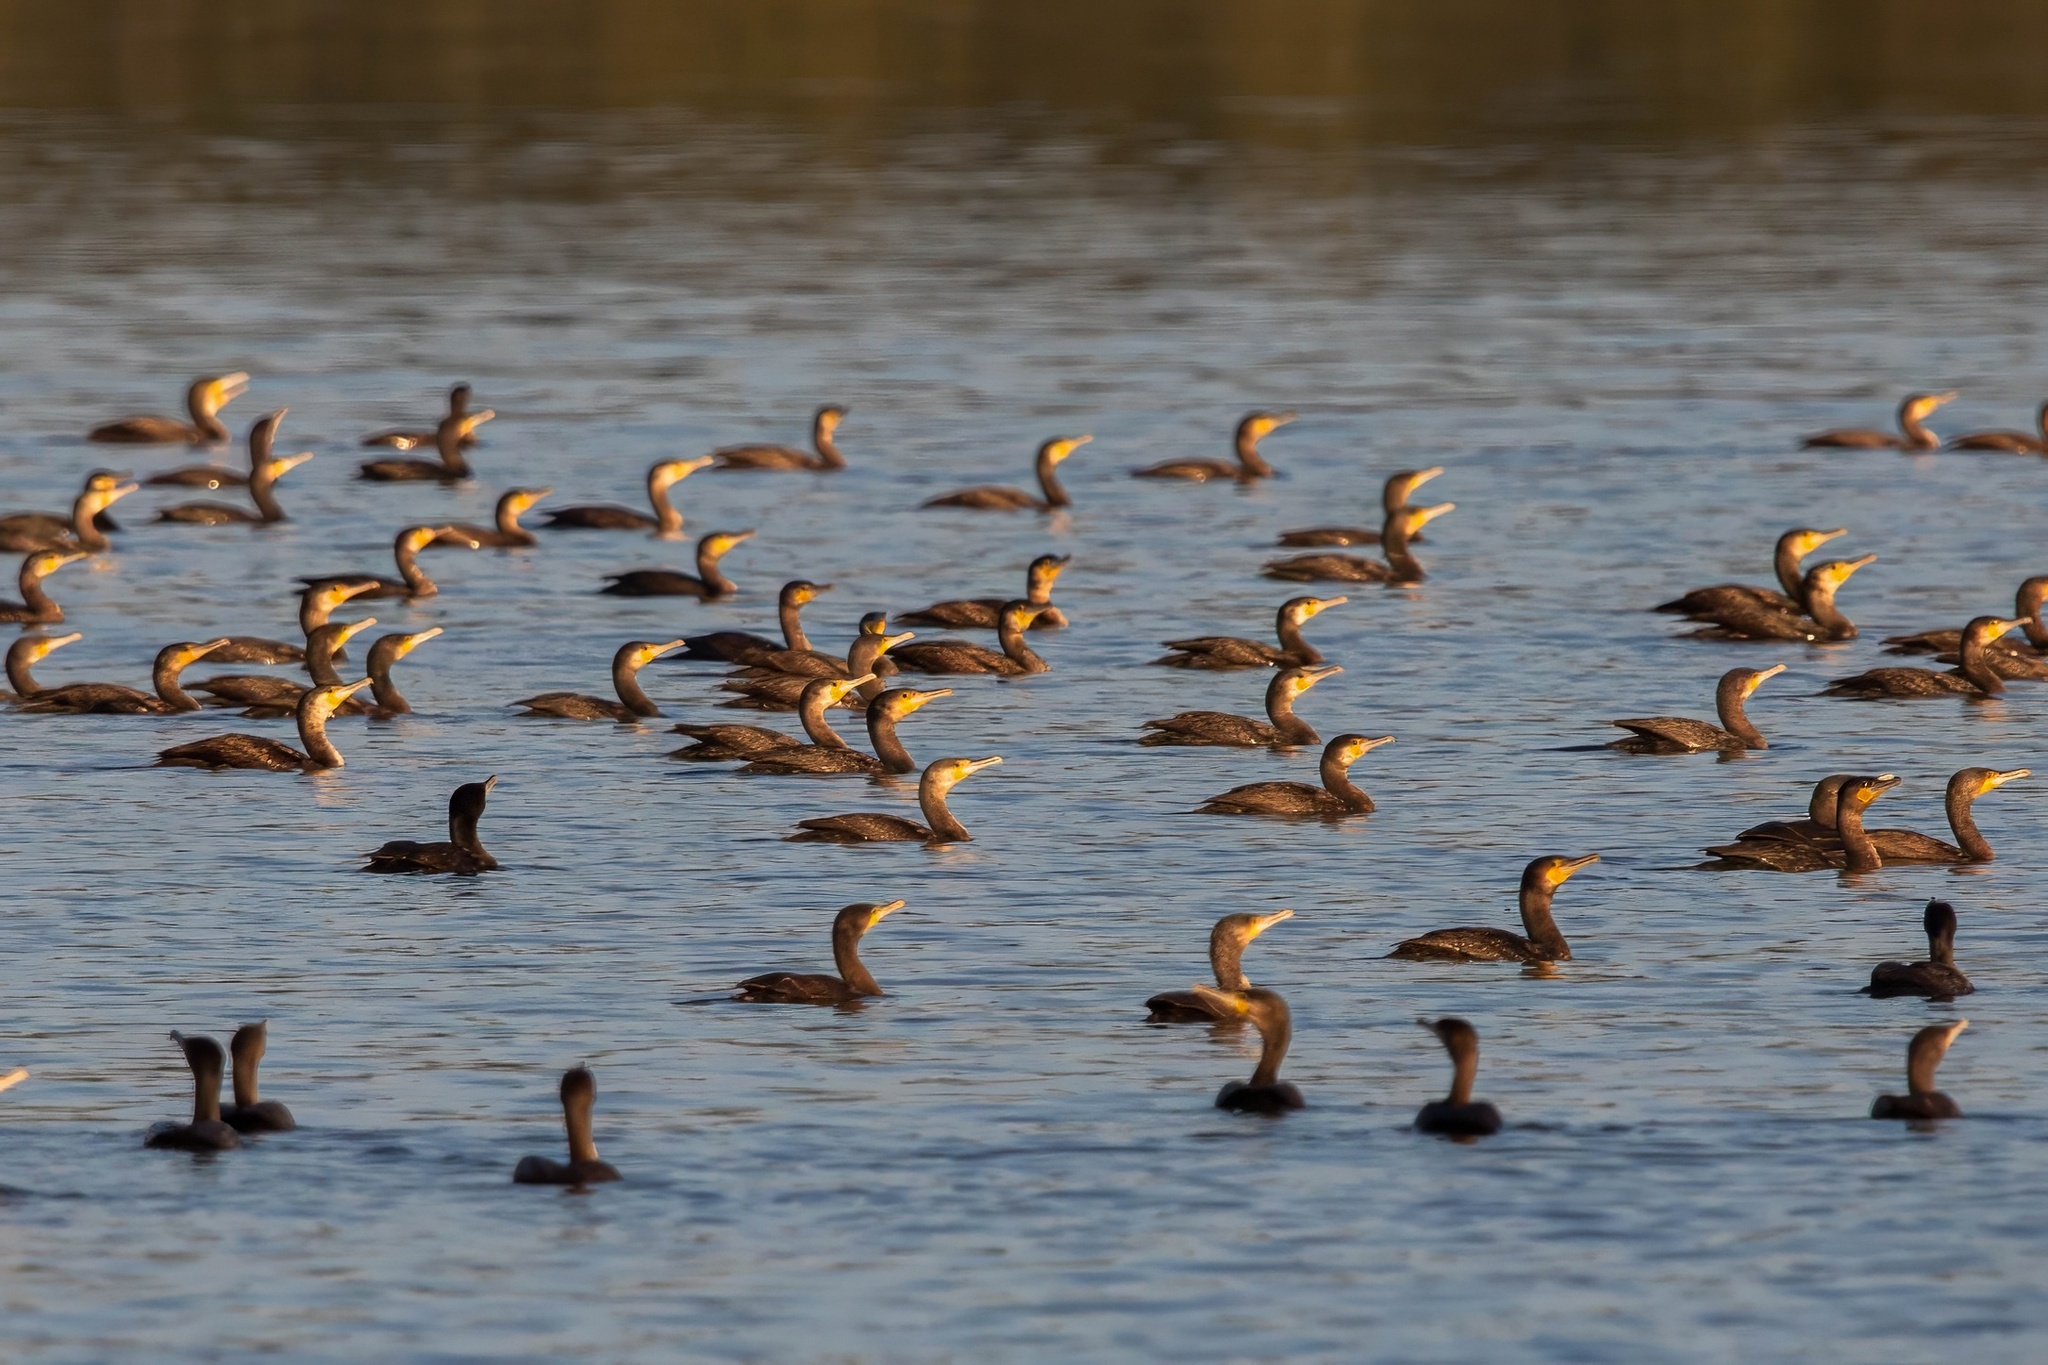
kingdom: Animalia
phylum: Chordata
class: Aves
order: Suliformes
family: Phalacrocoracidae
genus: Phalacrocorax
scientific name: Phalacrocorax carbo
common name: Great cormorant
